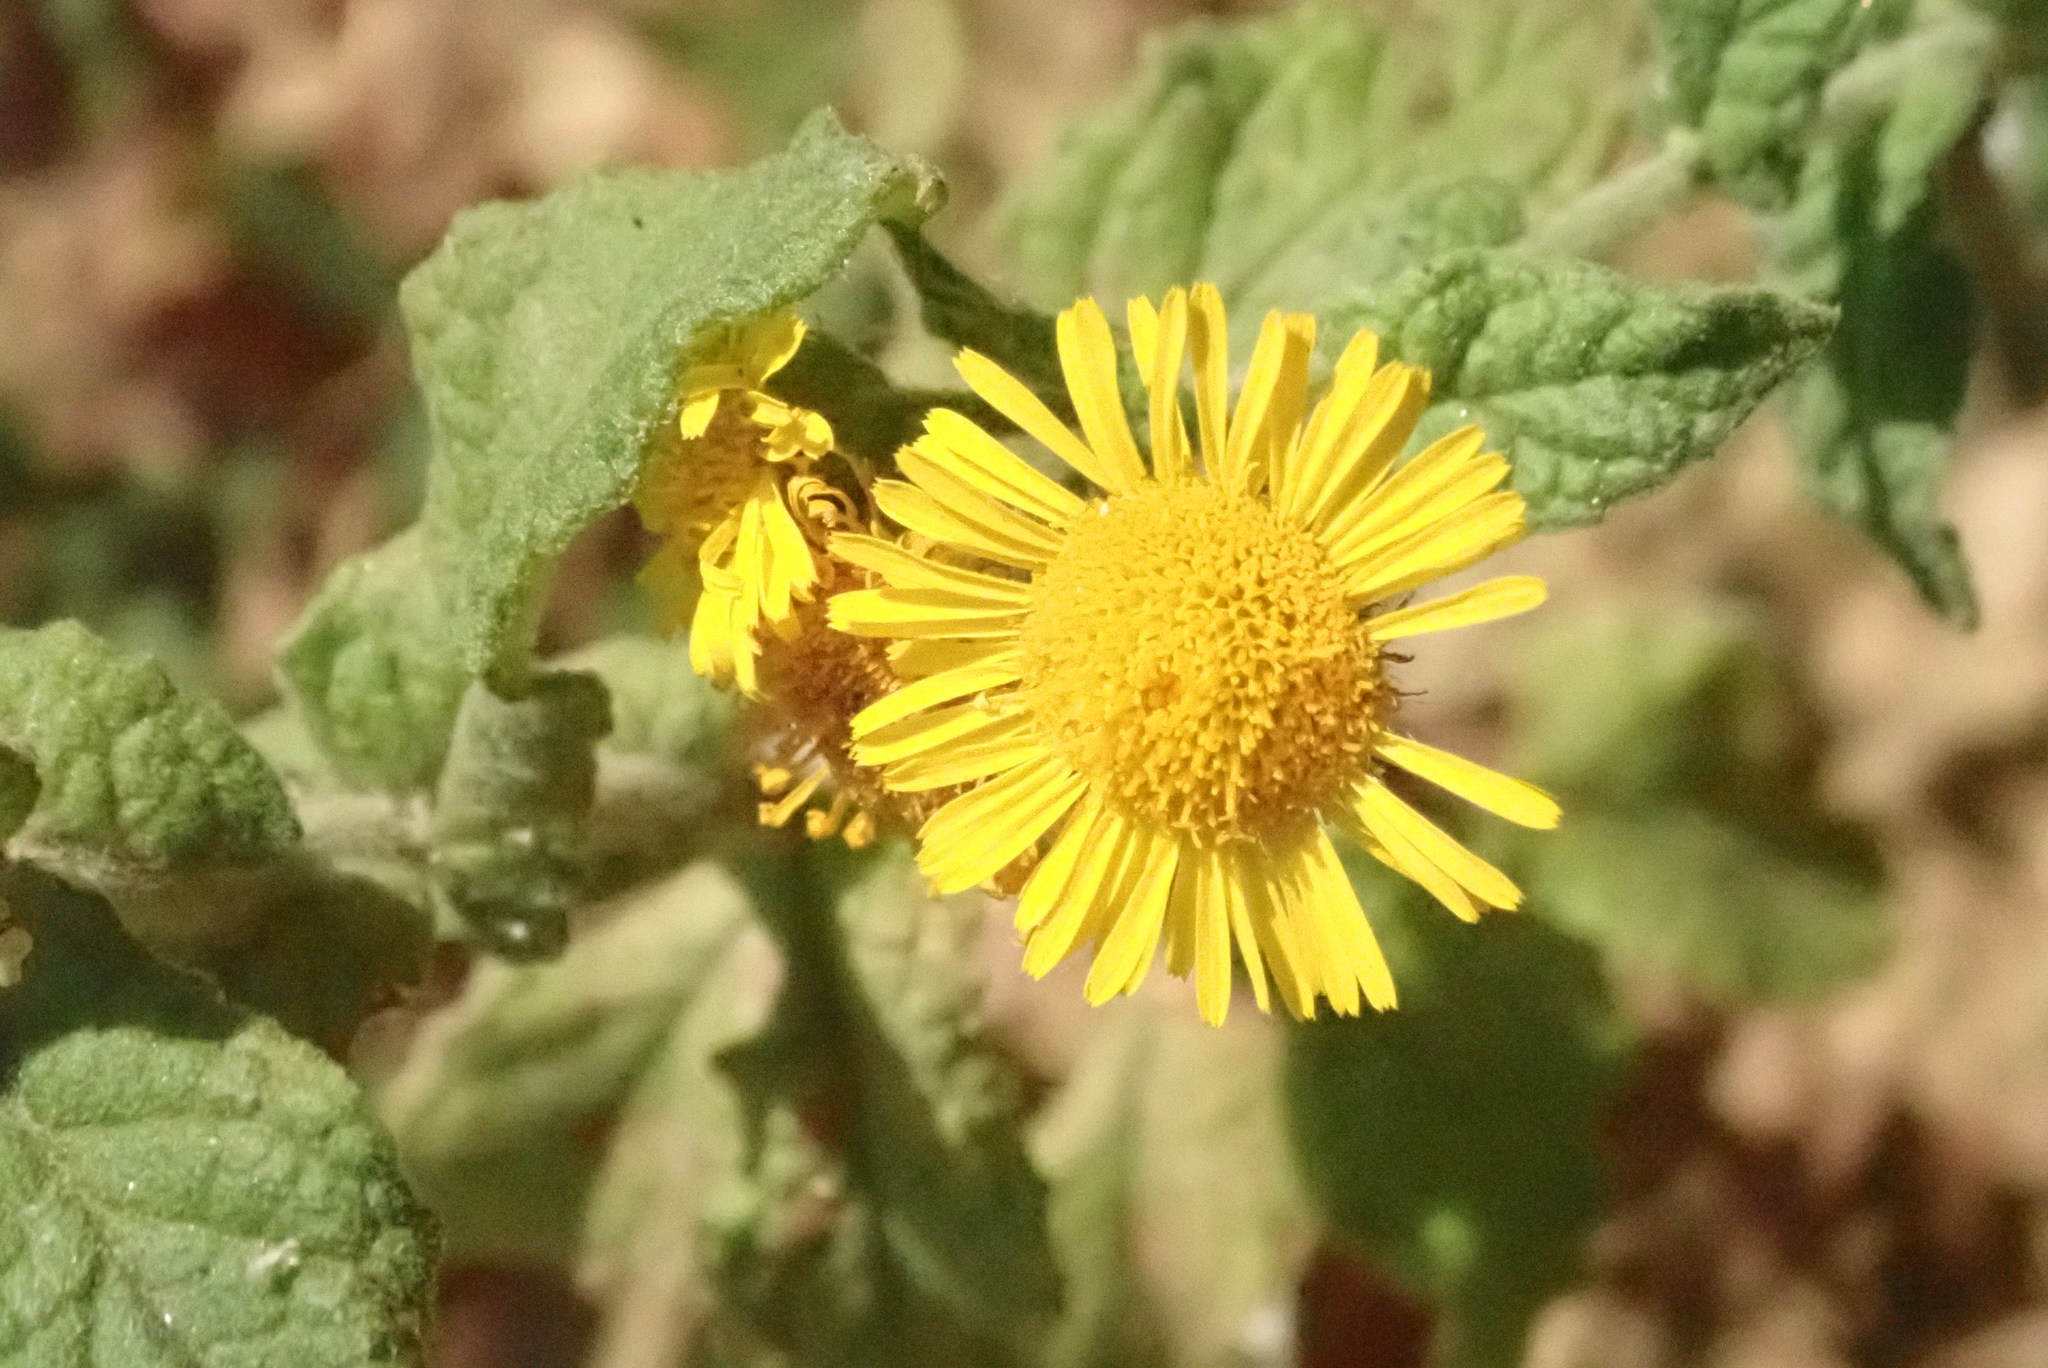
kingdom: Plantae
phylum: Tracheophyta
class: Magnoliopsida
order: Asterales
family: Asteraceae
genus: Pulicaria
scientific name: Pulicaria dysenterica
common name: Common fleabane
